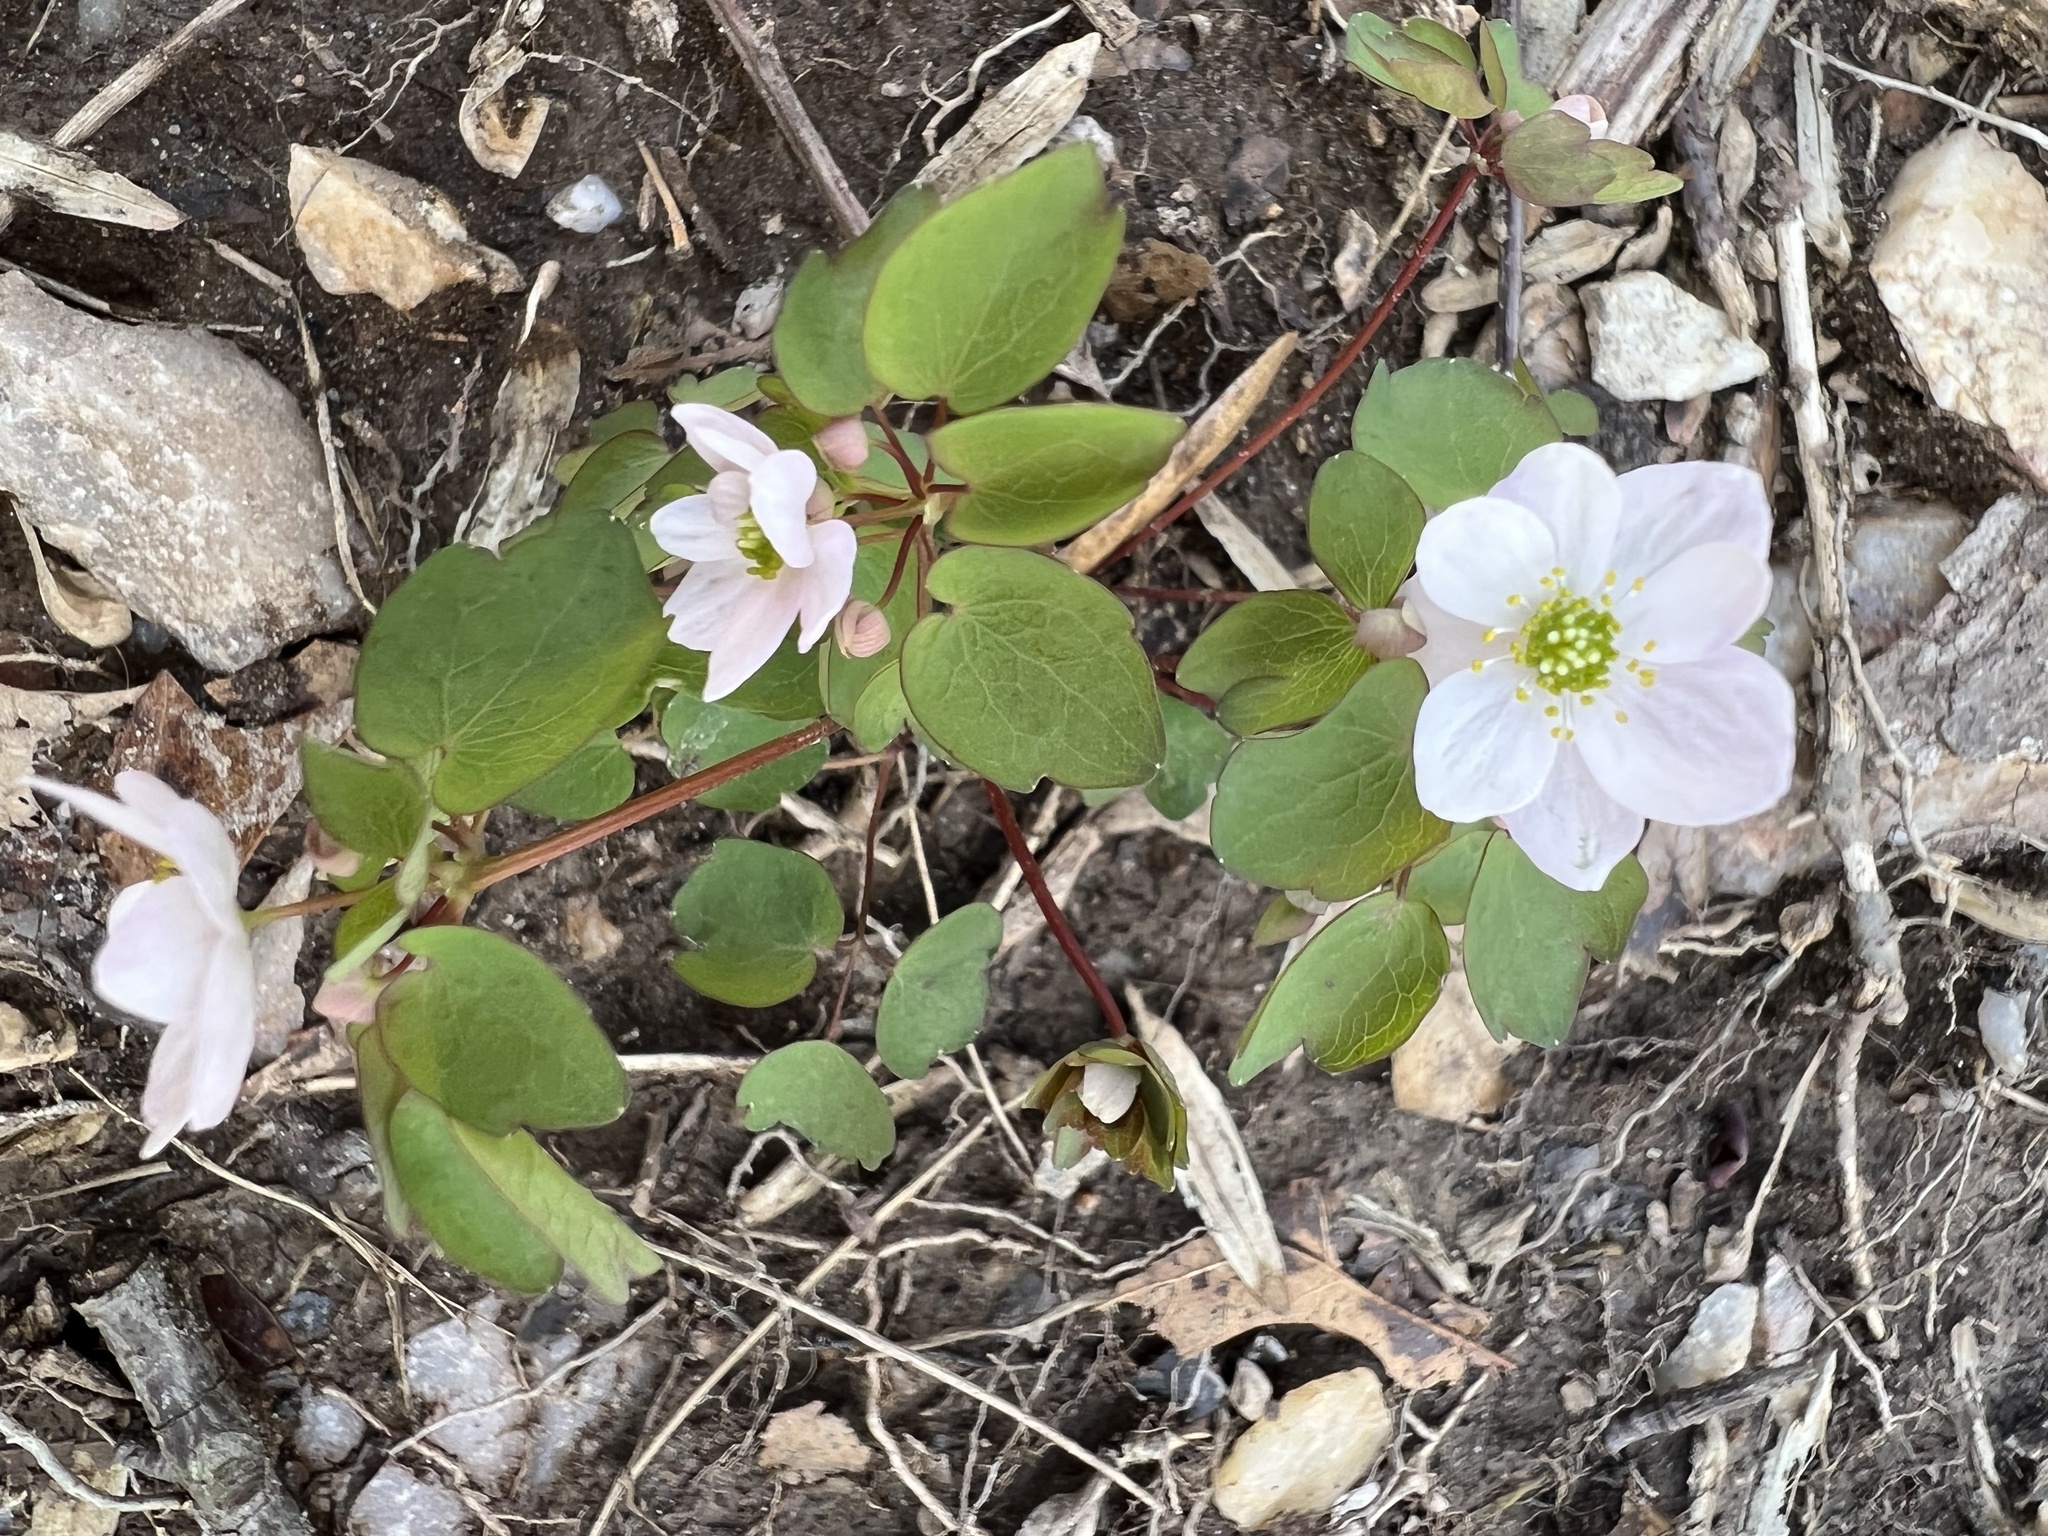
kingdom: Plantae
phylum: Tracheophyta
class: Magnoliopsida
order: Ranunculales
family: Ranunculaceae
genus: Thalictrum
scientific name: Thalictrum thalictroides
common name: Rue-anemone
